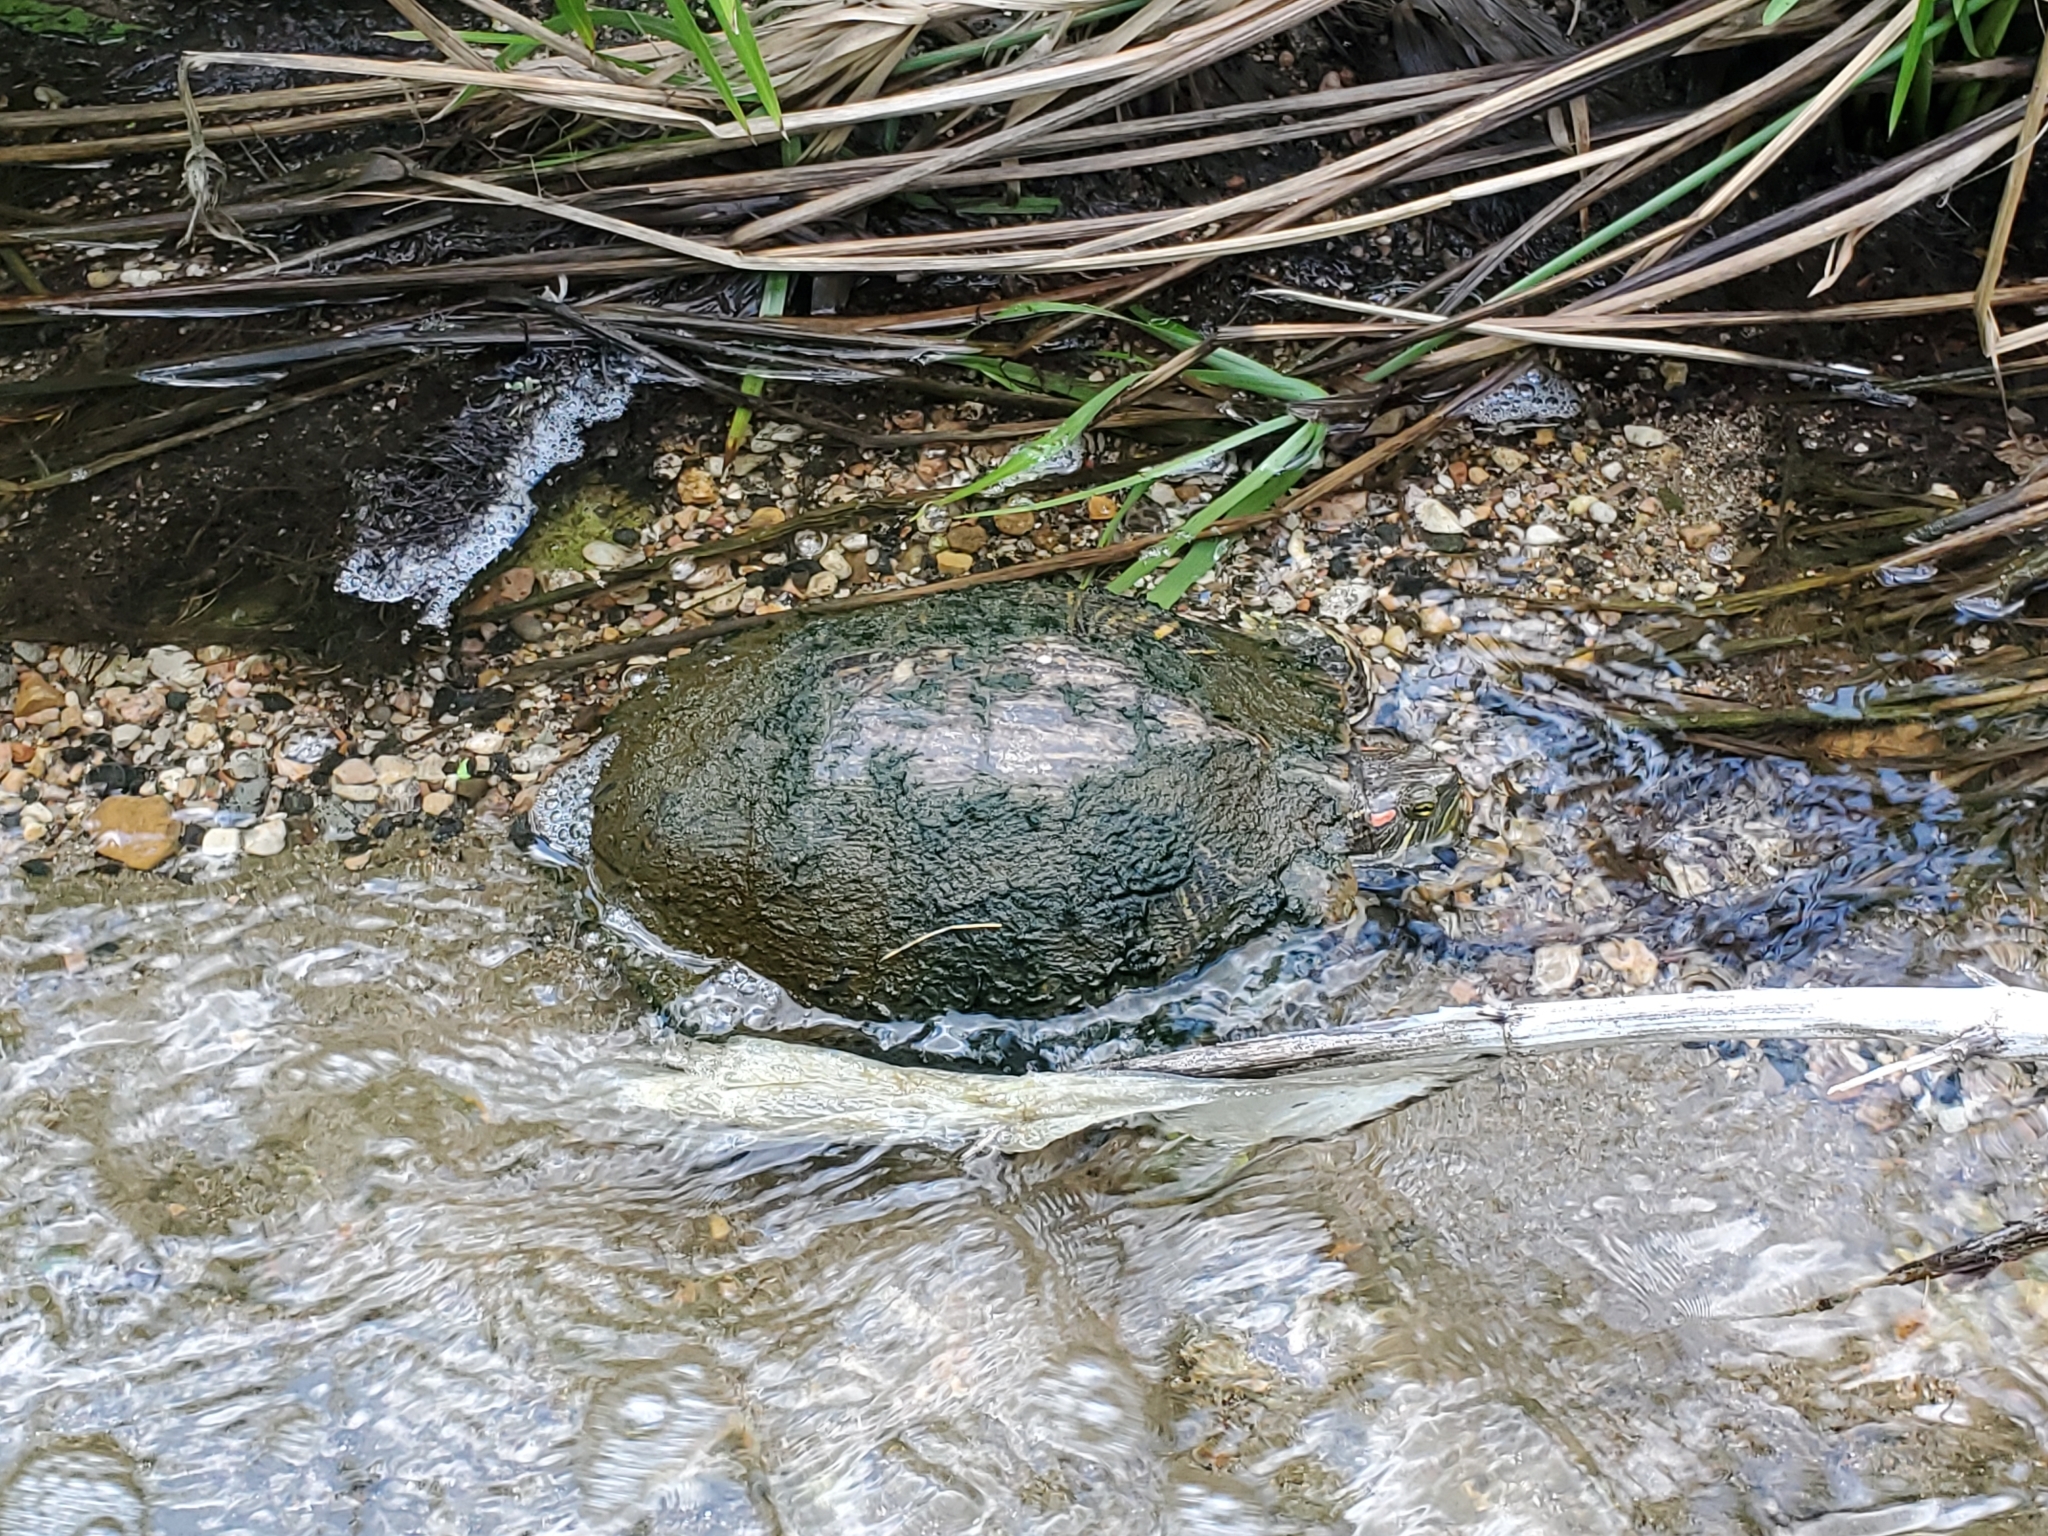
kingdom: Animalia
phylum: Chordata
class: Testudines
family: Emydidae
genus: Trachemys
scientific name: Trachemys scripta
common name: Slider
